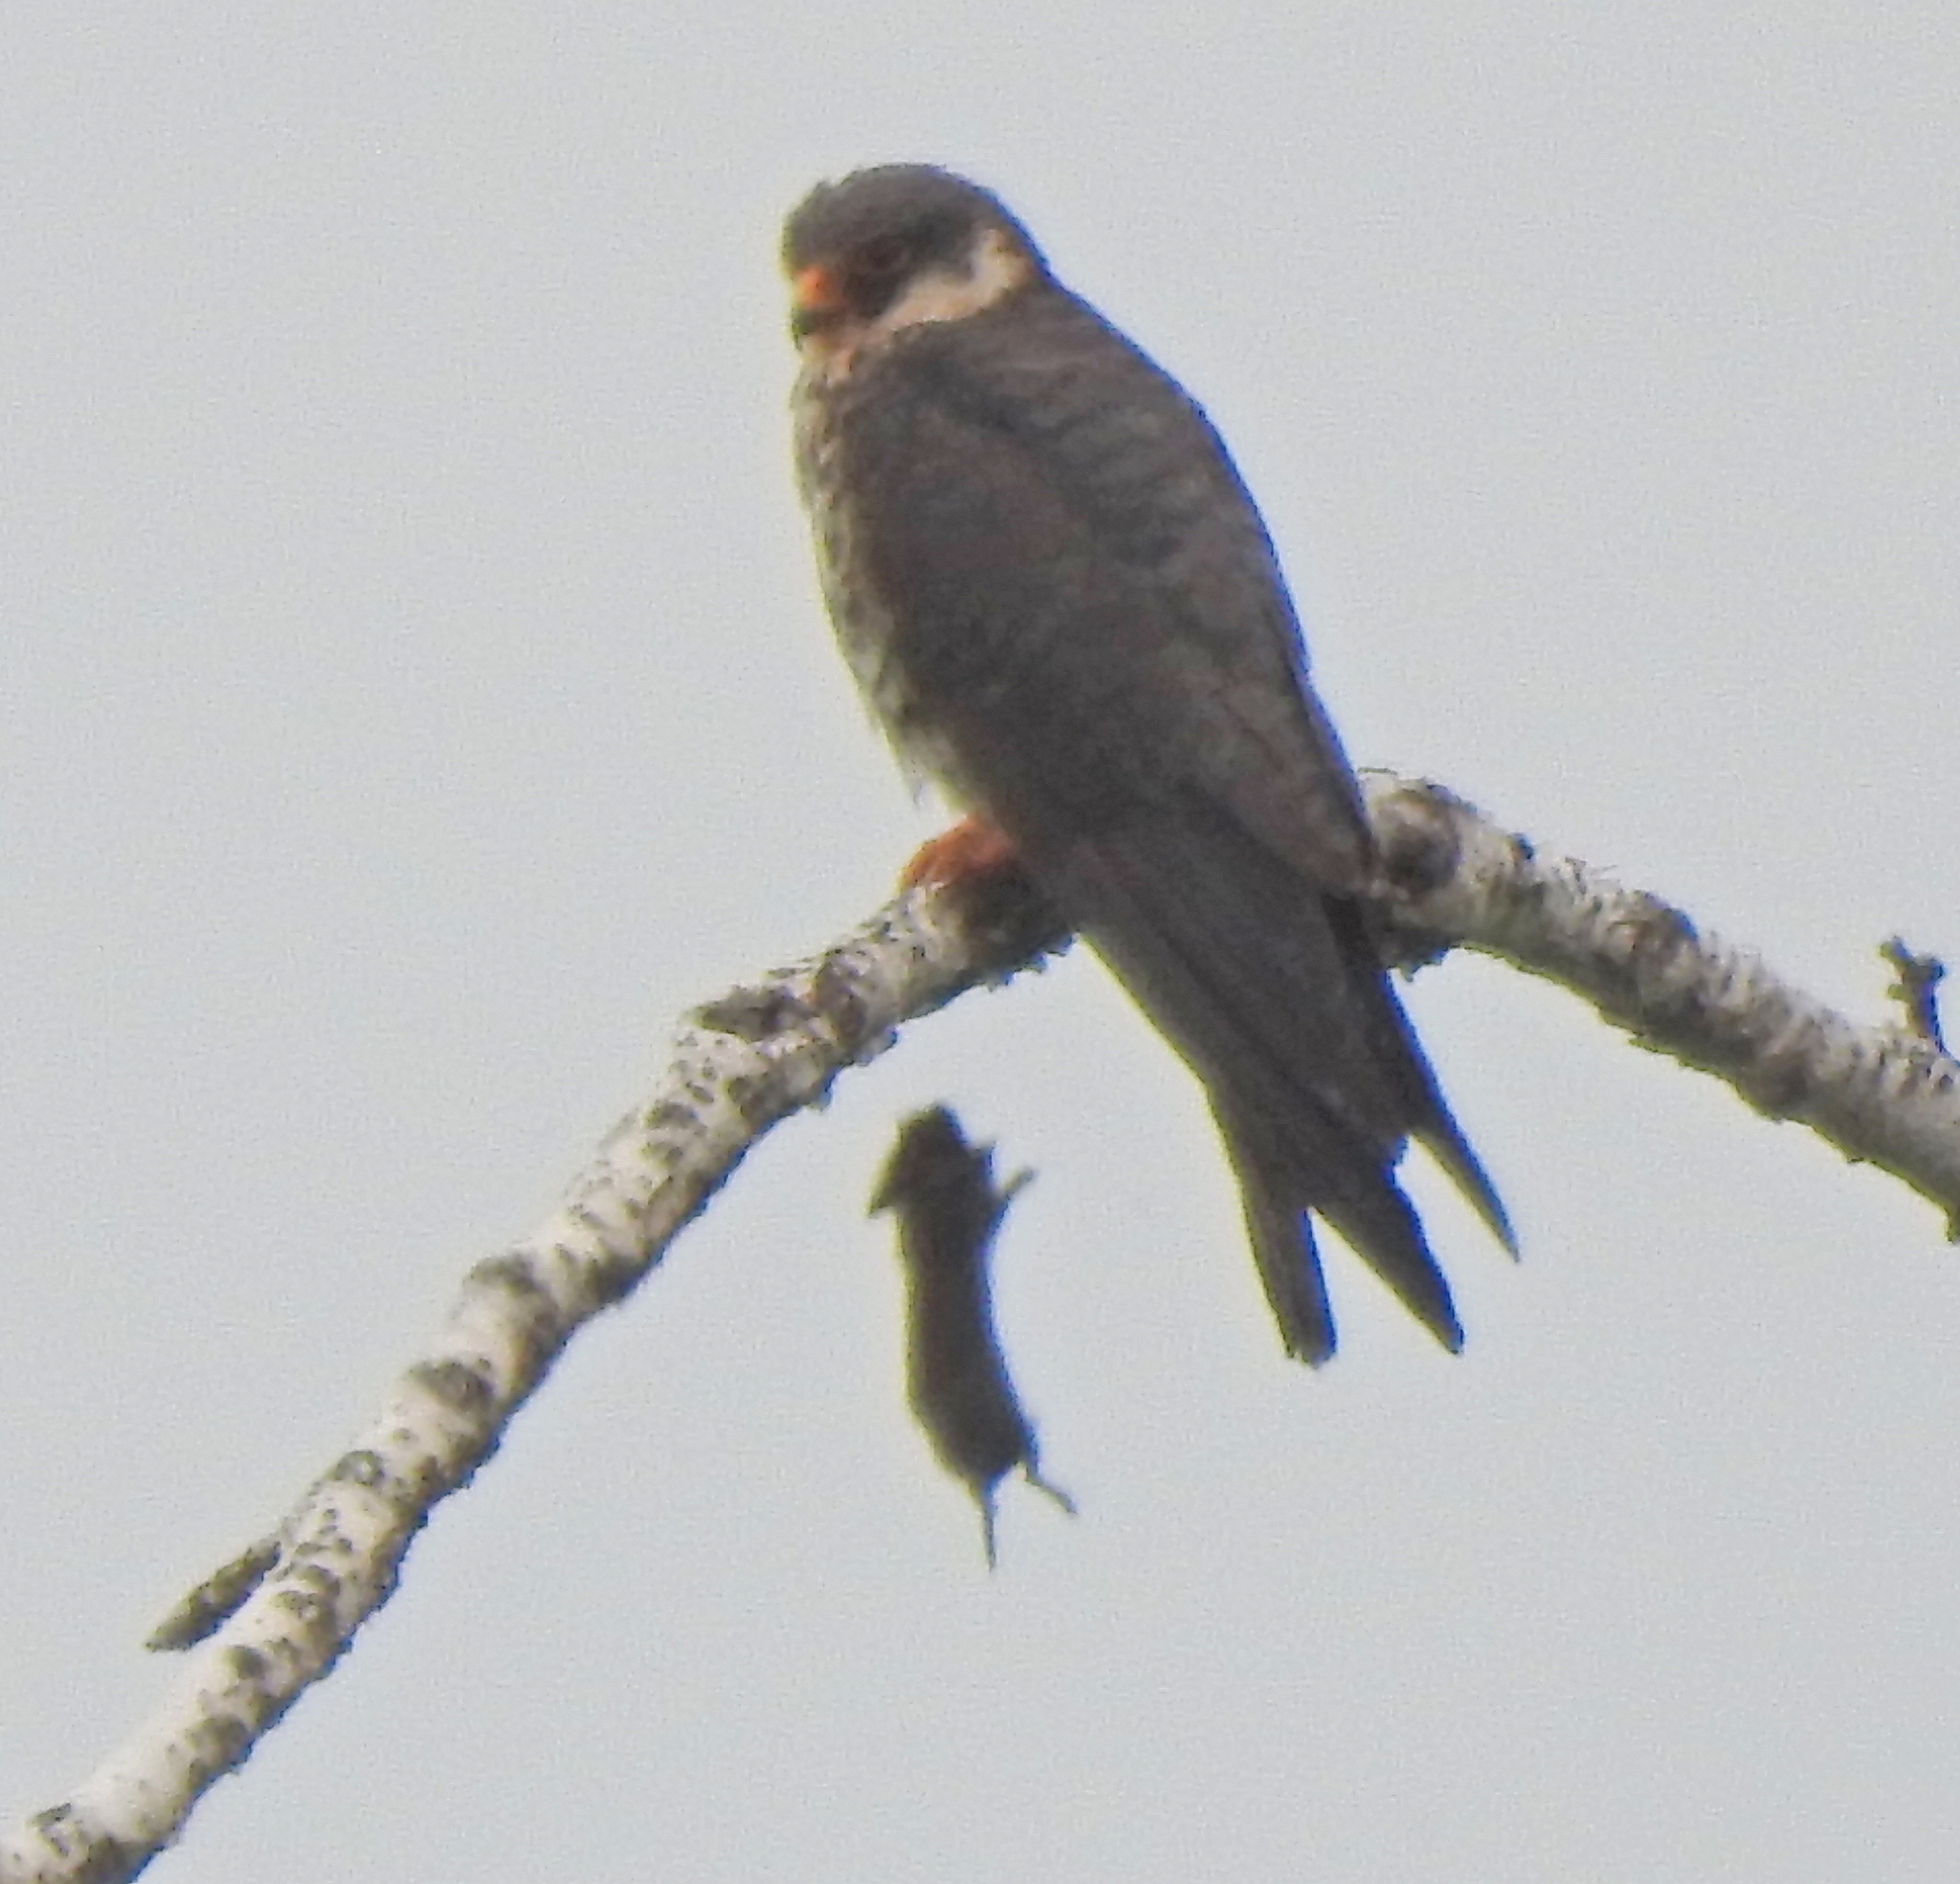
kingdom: Animalia
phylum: Chordata
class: Aves
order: Falconiformes
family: Falconidae
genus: Falco
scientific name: Falco amurensis
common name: Amur falcon
